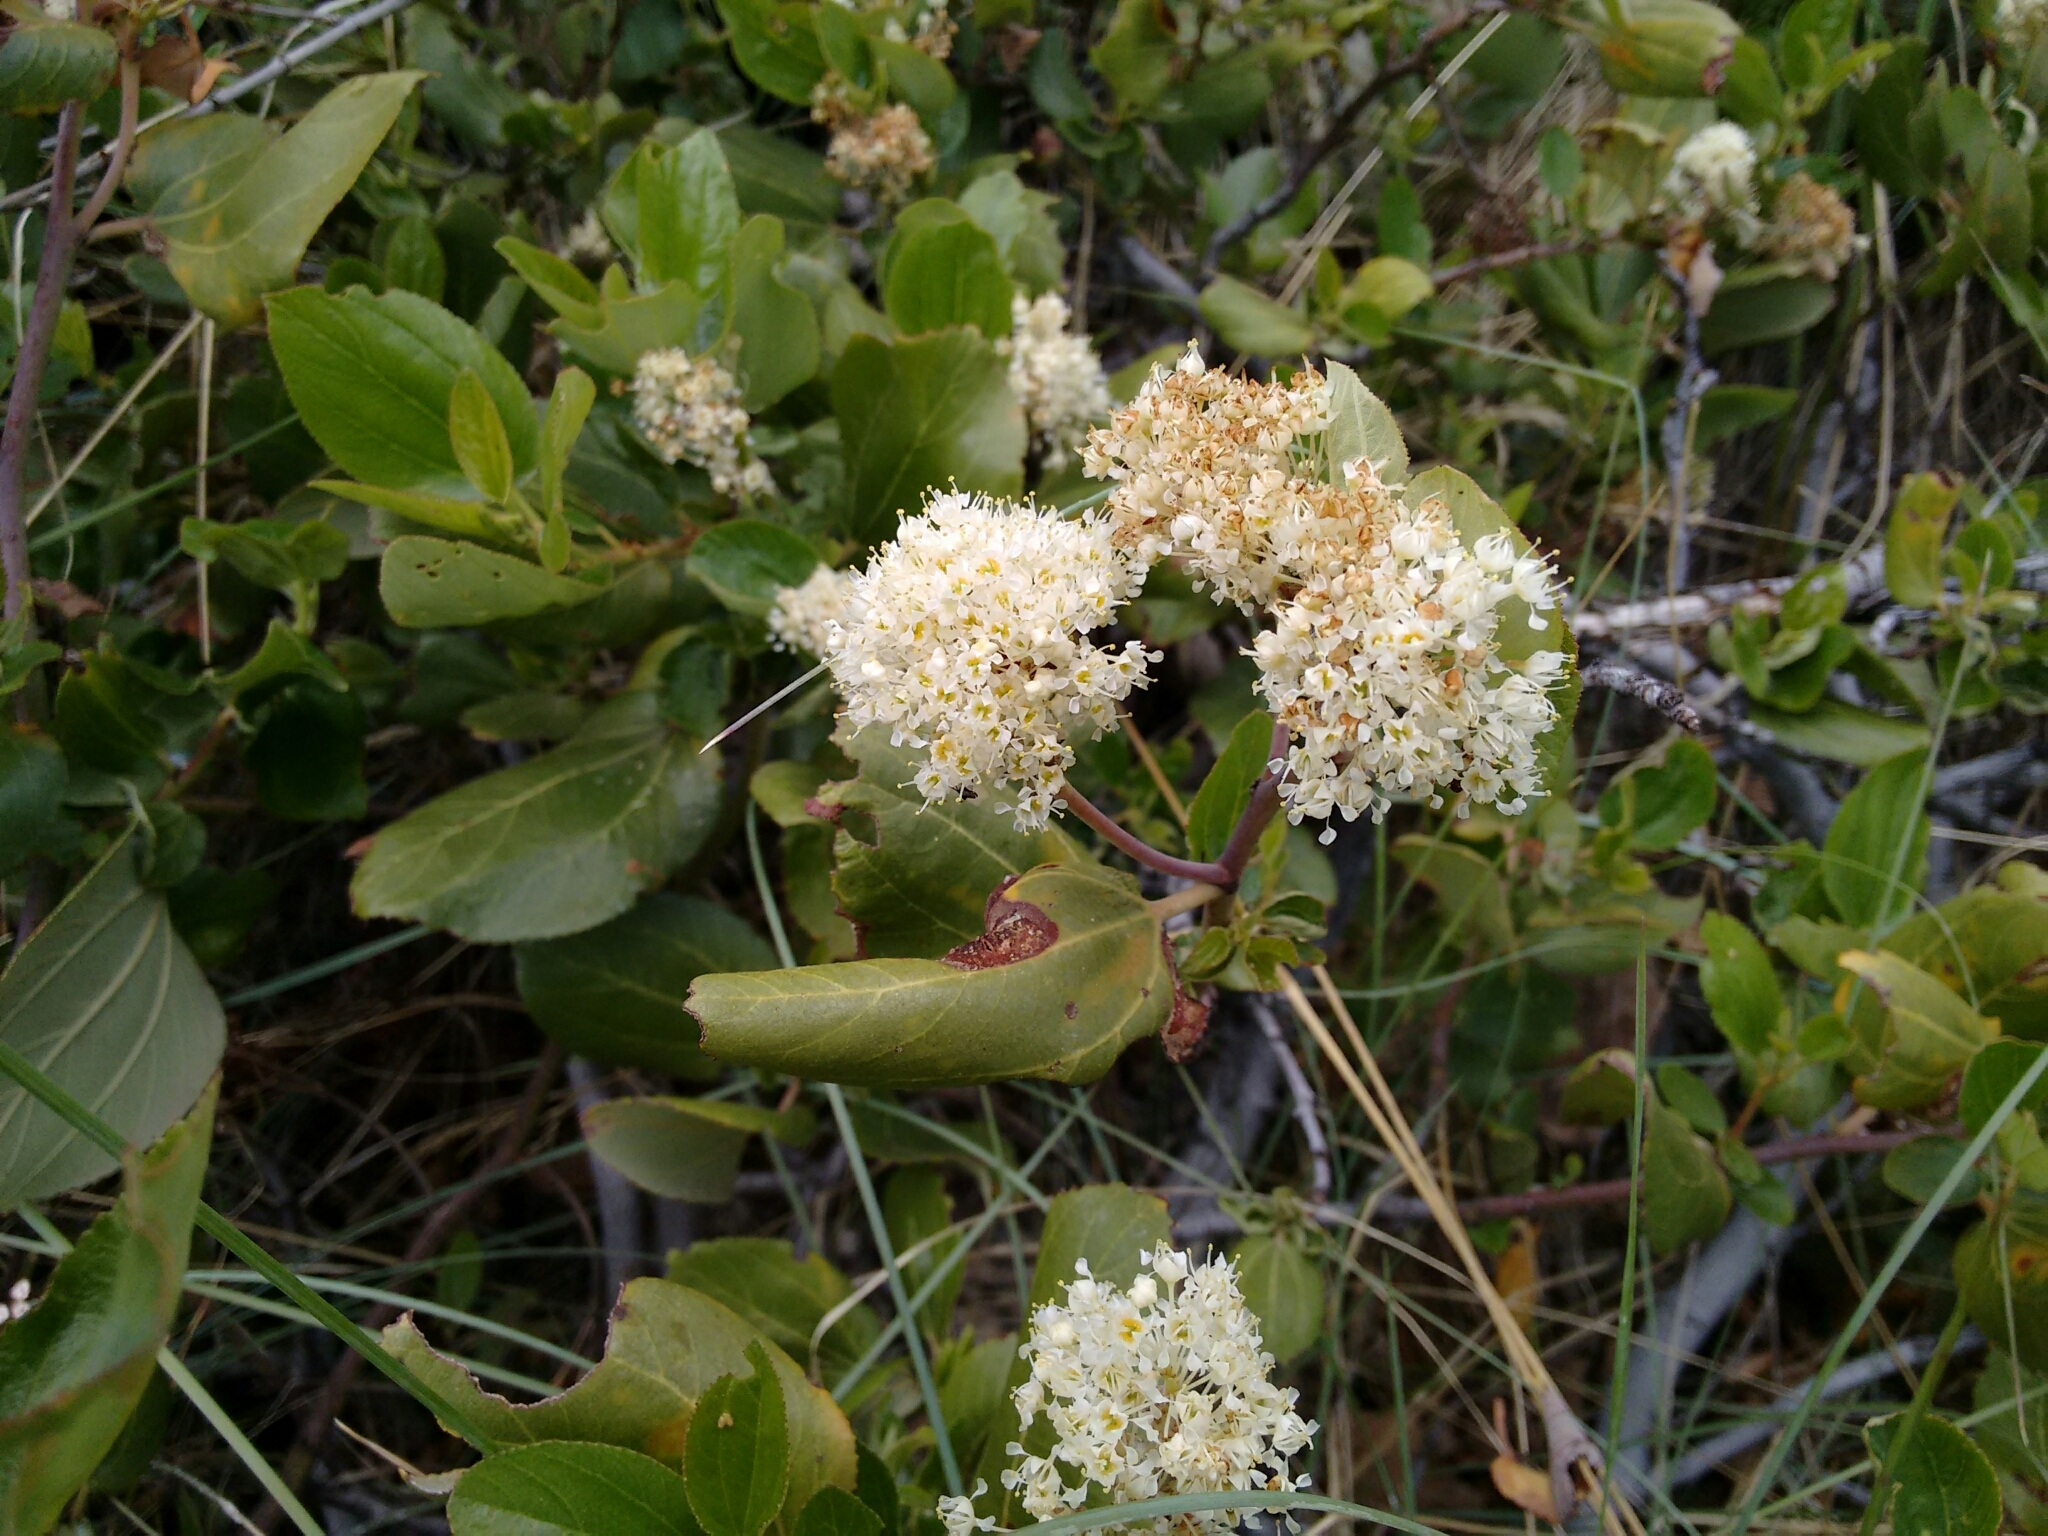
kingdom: Plantae
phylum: Tracheophyta
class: Magnoliopsida
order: Rosales
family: Rhamnaceae
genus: Ceanothus
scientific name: Ceanothus velutinus
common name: Snowbrush
